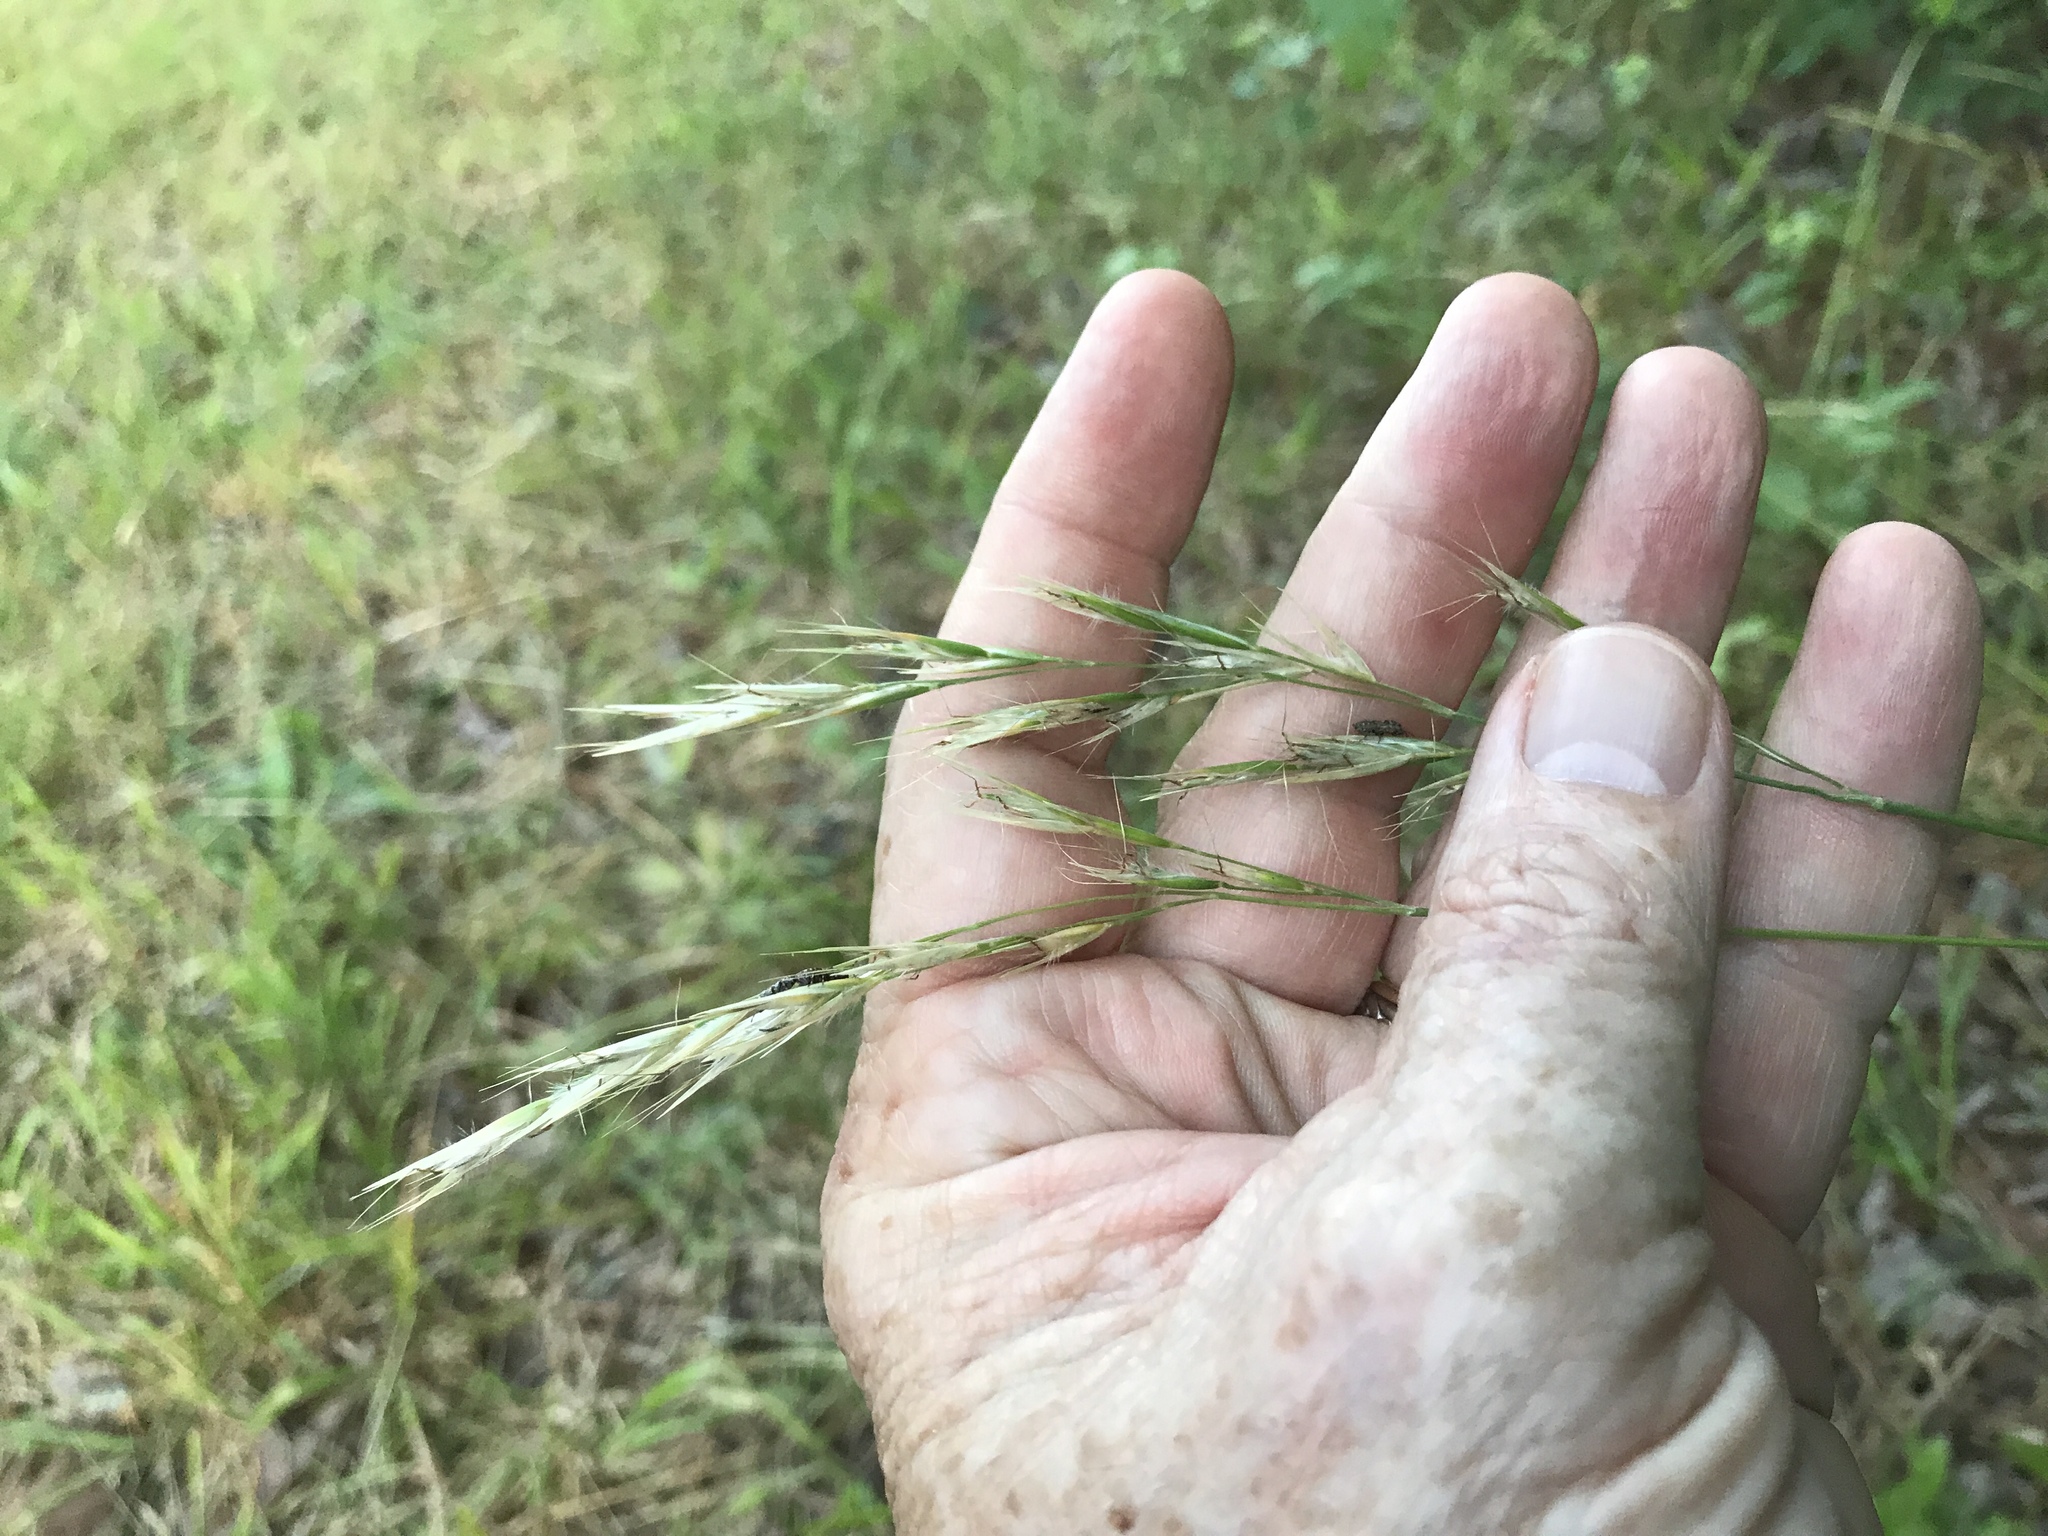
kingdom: Plantae
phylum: Tracheophyta
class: Liliopsida
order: Poales
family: Poaceae
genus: Danthonia
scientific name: Danthonia sericea
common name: Downy danthonia
